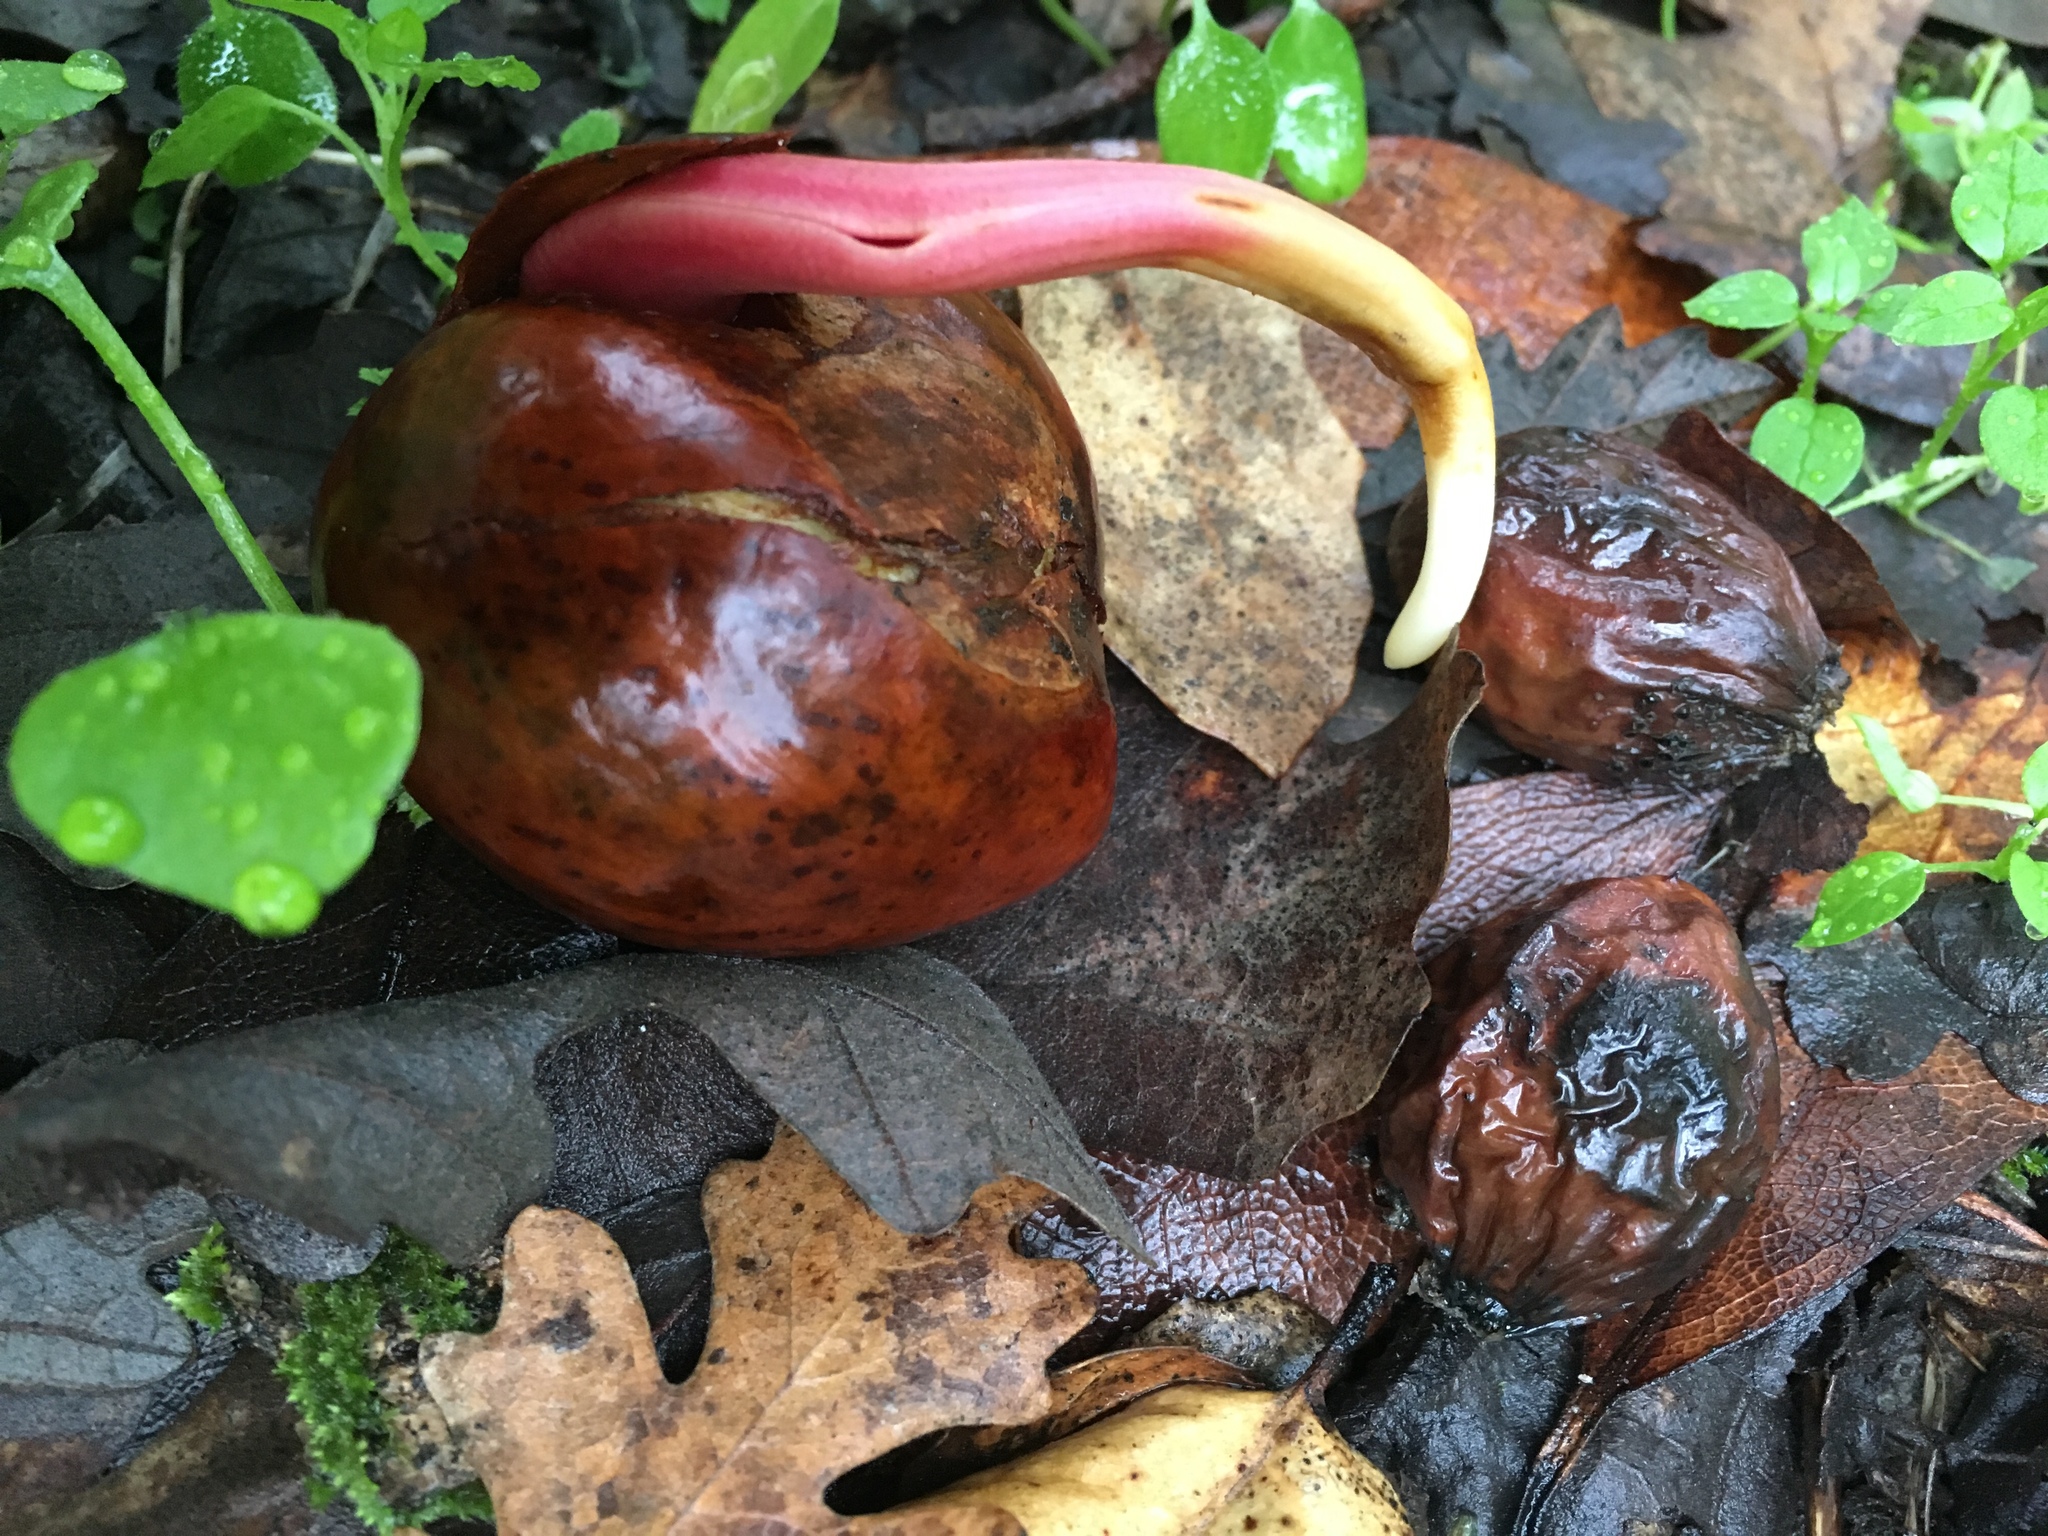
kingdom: Plantae
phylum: Tracheophyta
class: Magnoliopsida
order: Sapindales
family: Sapindaceae
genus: Aesculus
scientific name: Aesculus californica
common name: California buckeye
